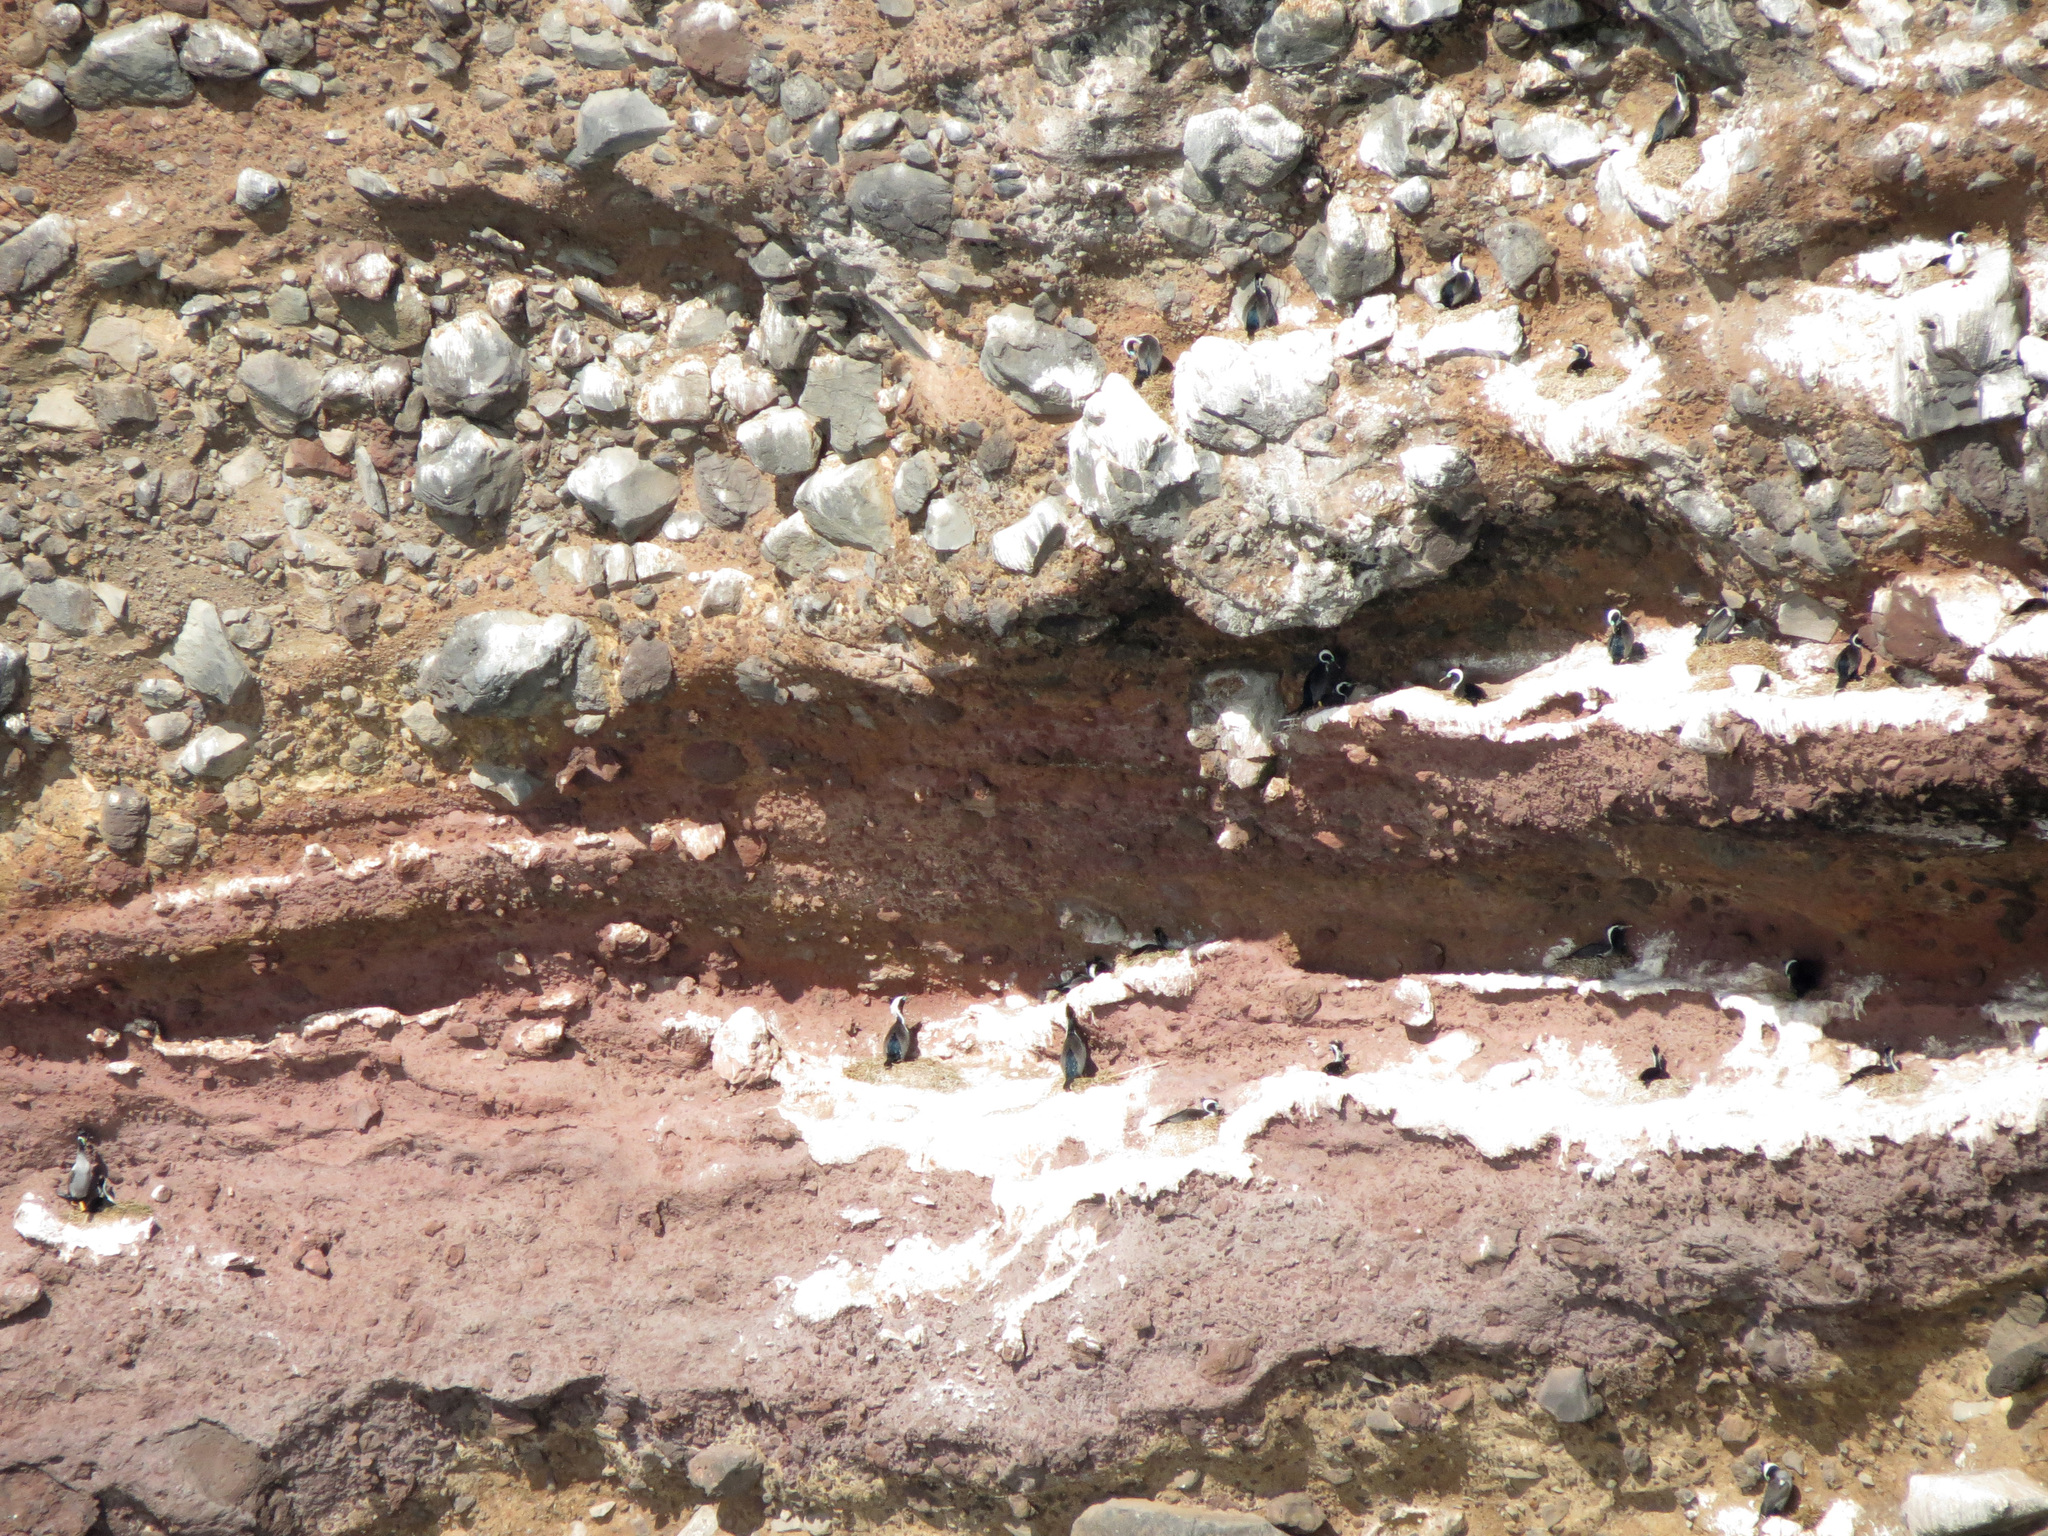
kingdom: Animalia
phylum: Chordata
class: Aves
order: Suliformes
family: Phalacrocoracidae
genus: Phalacrocorax
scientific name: Phalacrocorax punctatus
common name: Spotted shag
